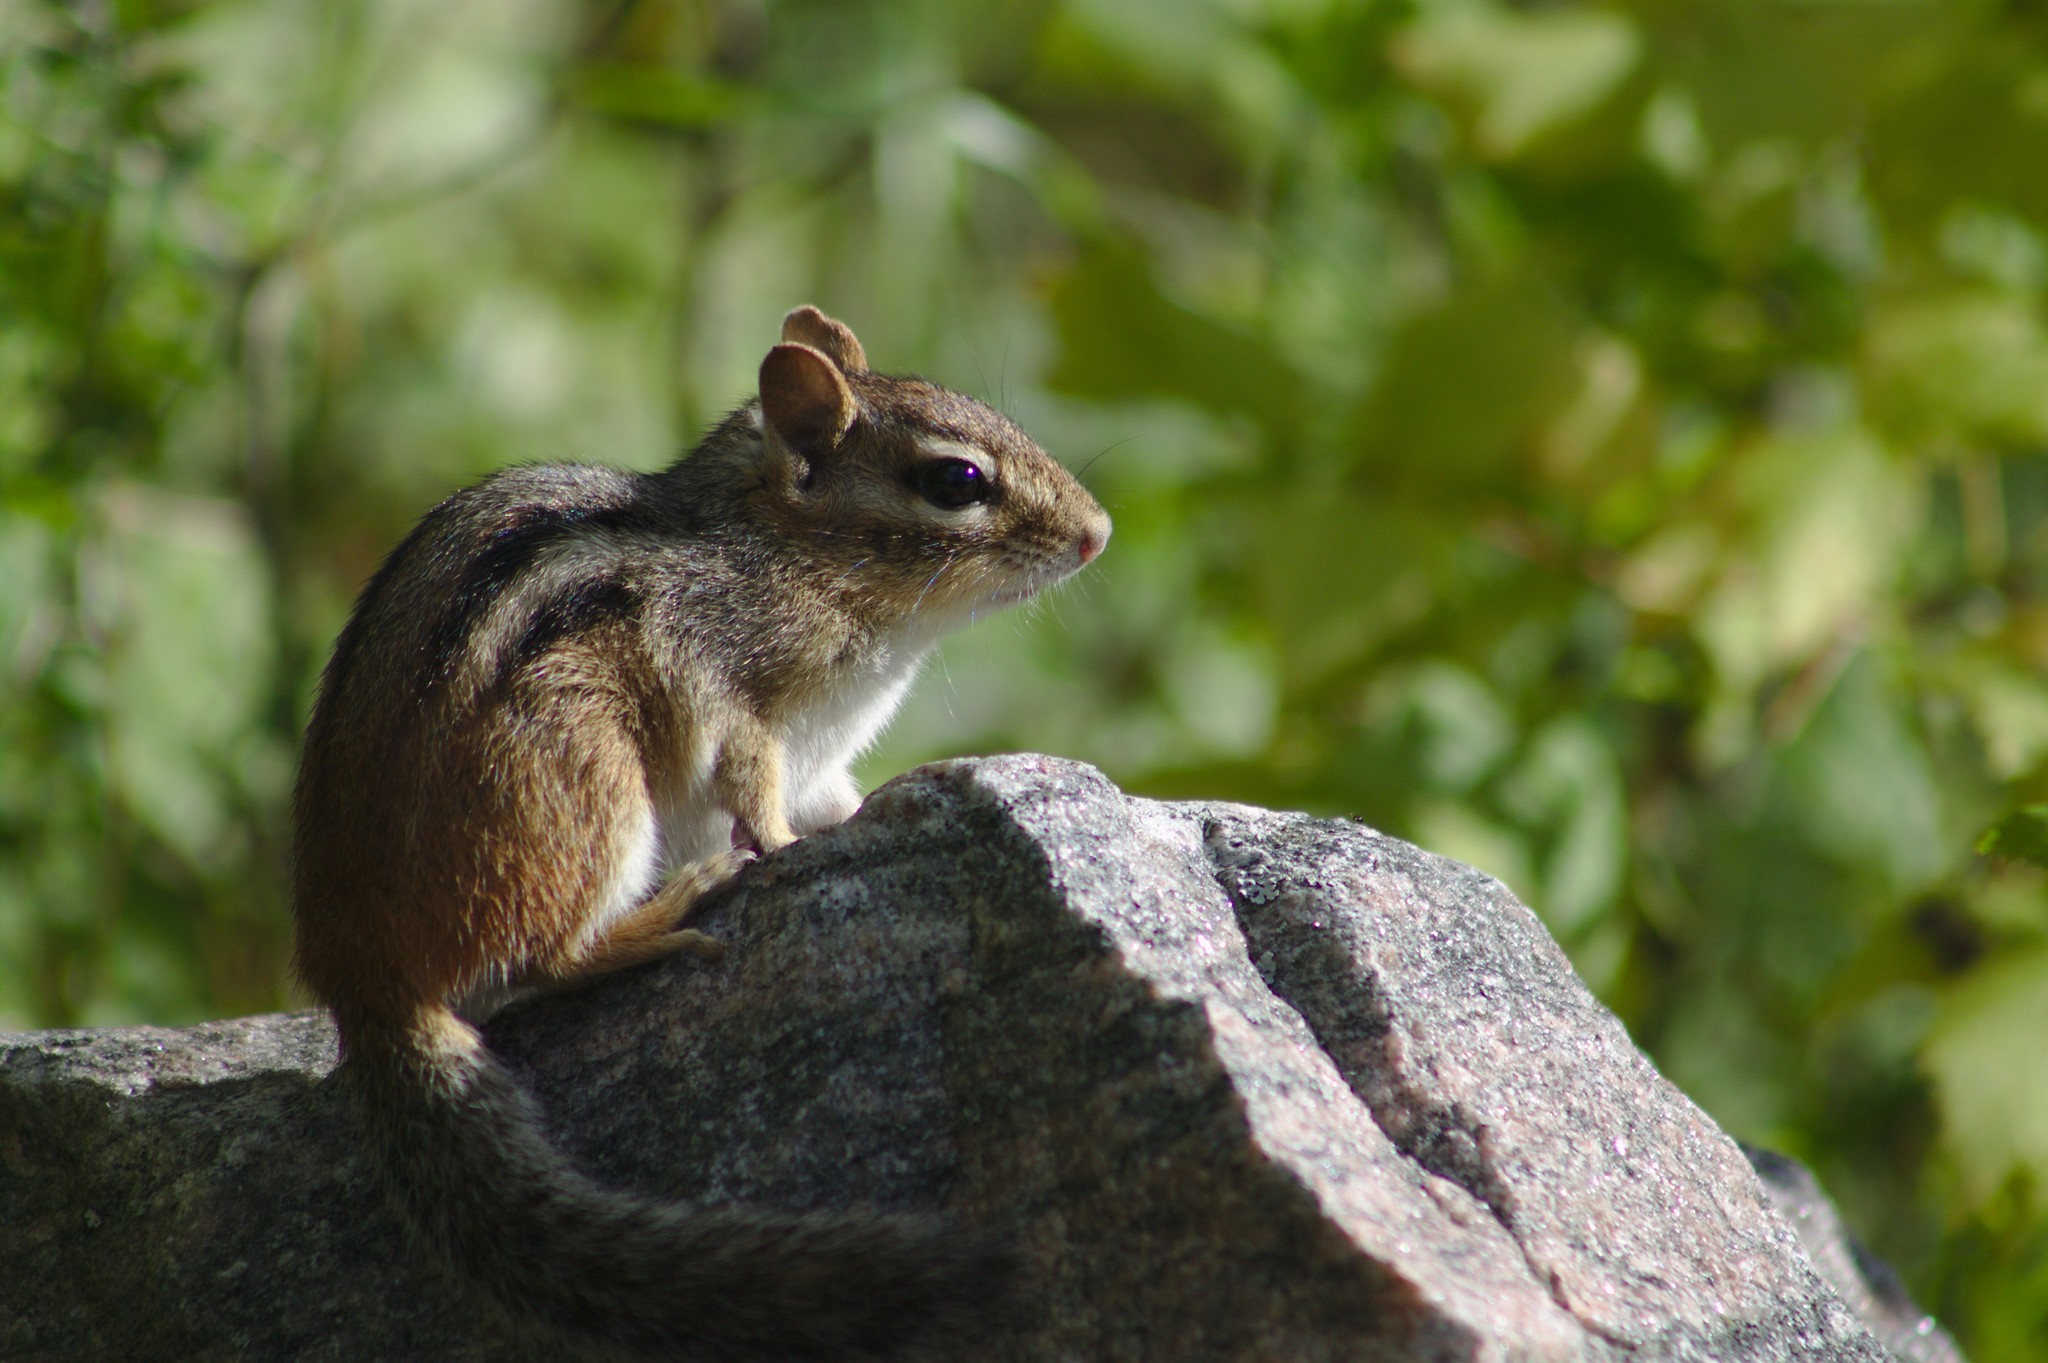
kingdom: Animalia
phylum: Chordata
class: Mammalia
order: Rodentia
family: Sciuridae
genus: Tamias
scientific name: Tamias striatus
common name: Eastern chipmunk
